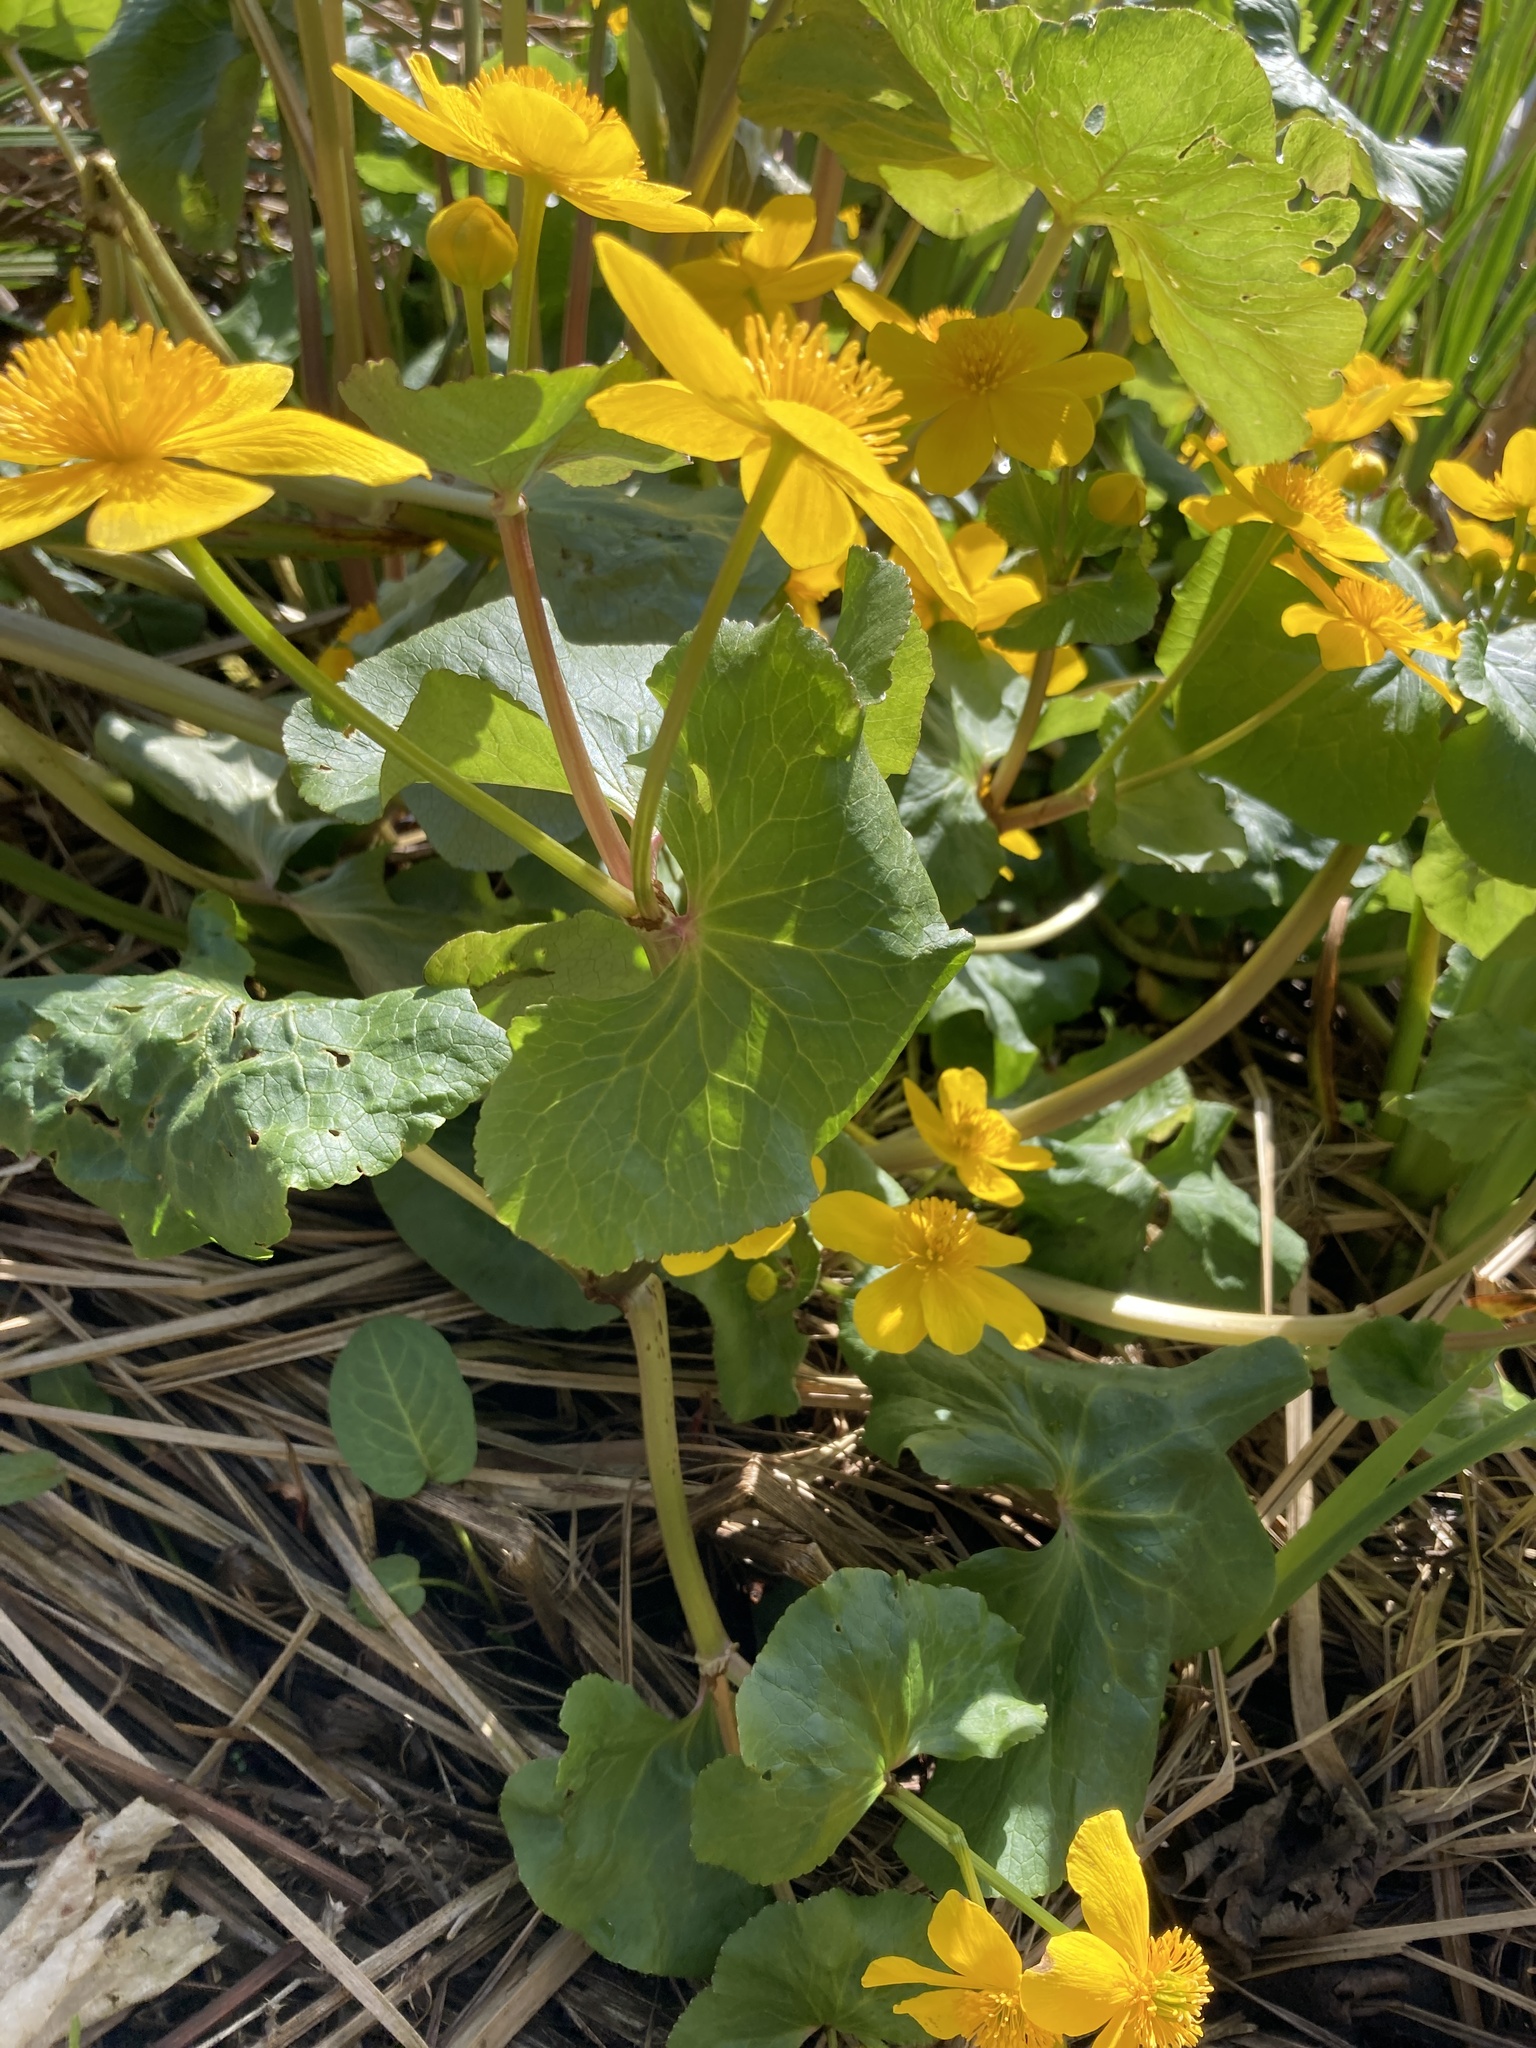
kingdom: Plantae
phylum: Tracheophyta
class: Magnoliopsida
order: Ranunculales
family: Ranunculaceae
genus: Caltha
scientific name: Caltha palustris
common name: Marsh marigold
